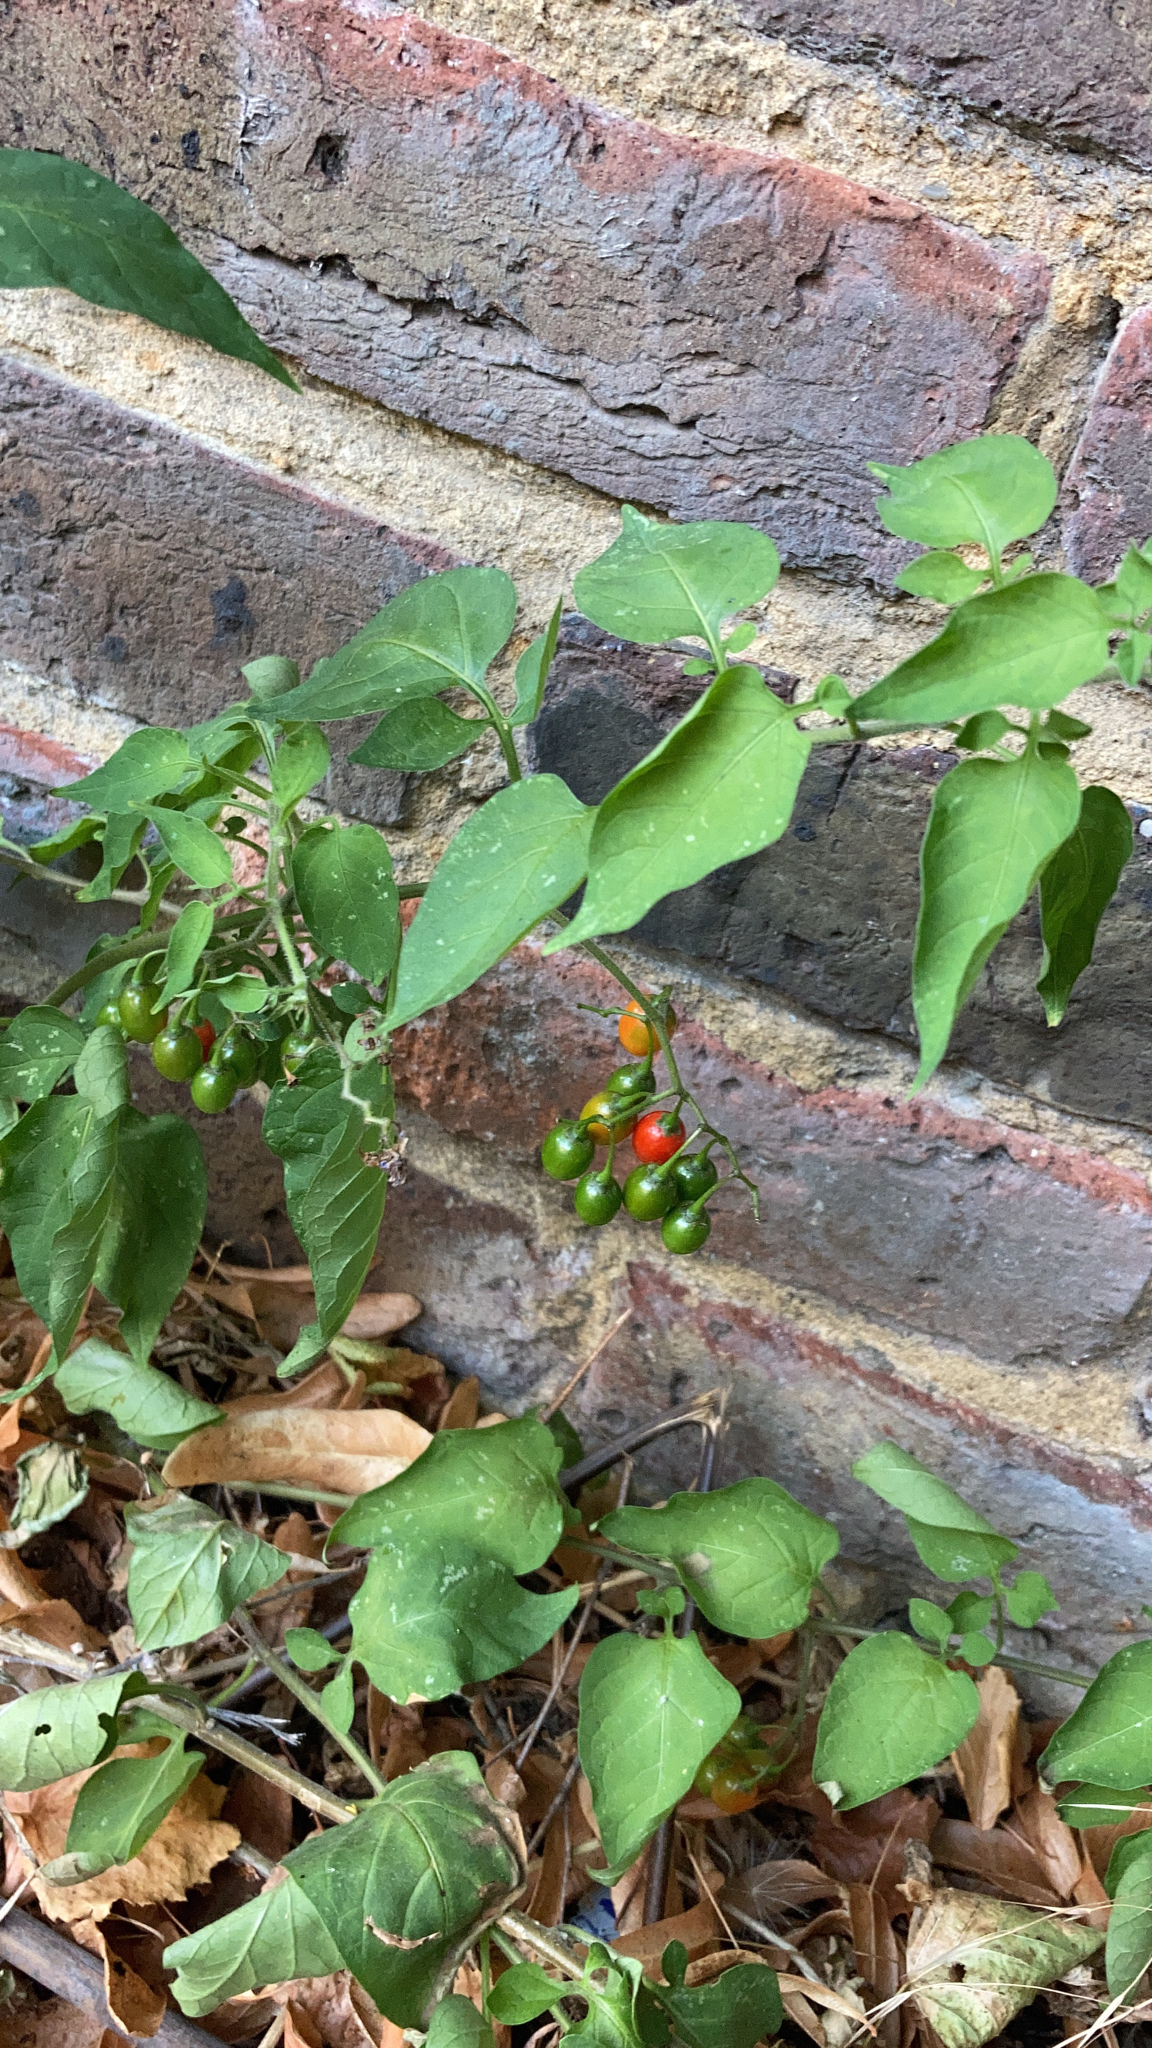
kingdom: Plantae
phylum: Tracheophyta
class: Magnoliopsida
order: Solanales
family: Solanaceae
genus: Solanum
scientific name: Solanum dulcamara
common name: Climbing nightshade
